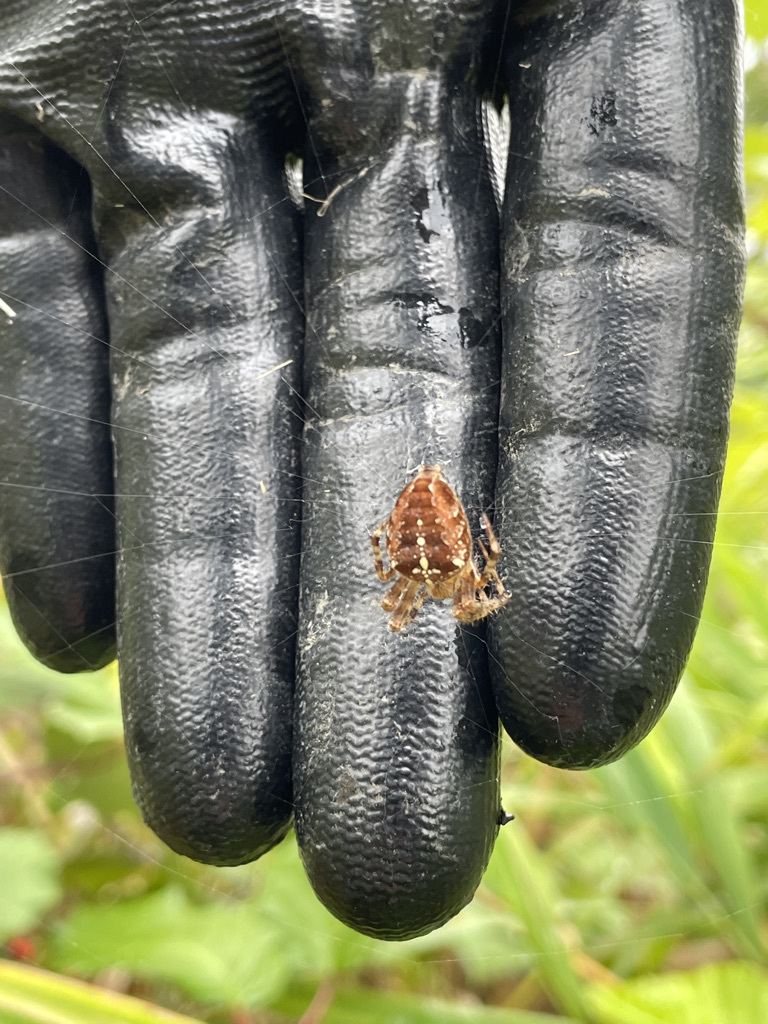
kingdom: Animalia
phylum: Arthropoda
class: Arachnida
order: Araneae
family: Araneidae
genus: Araneus
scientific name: Araneus diadematus
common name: Cross orbweaver
